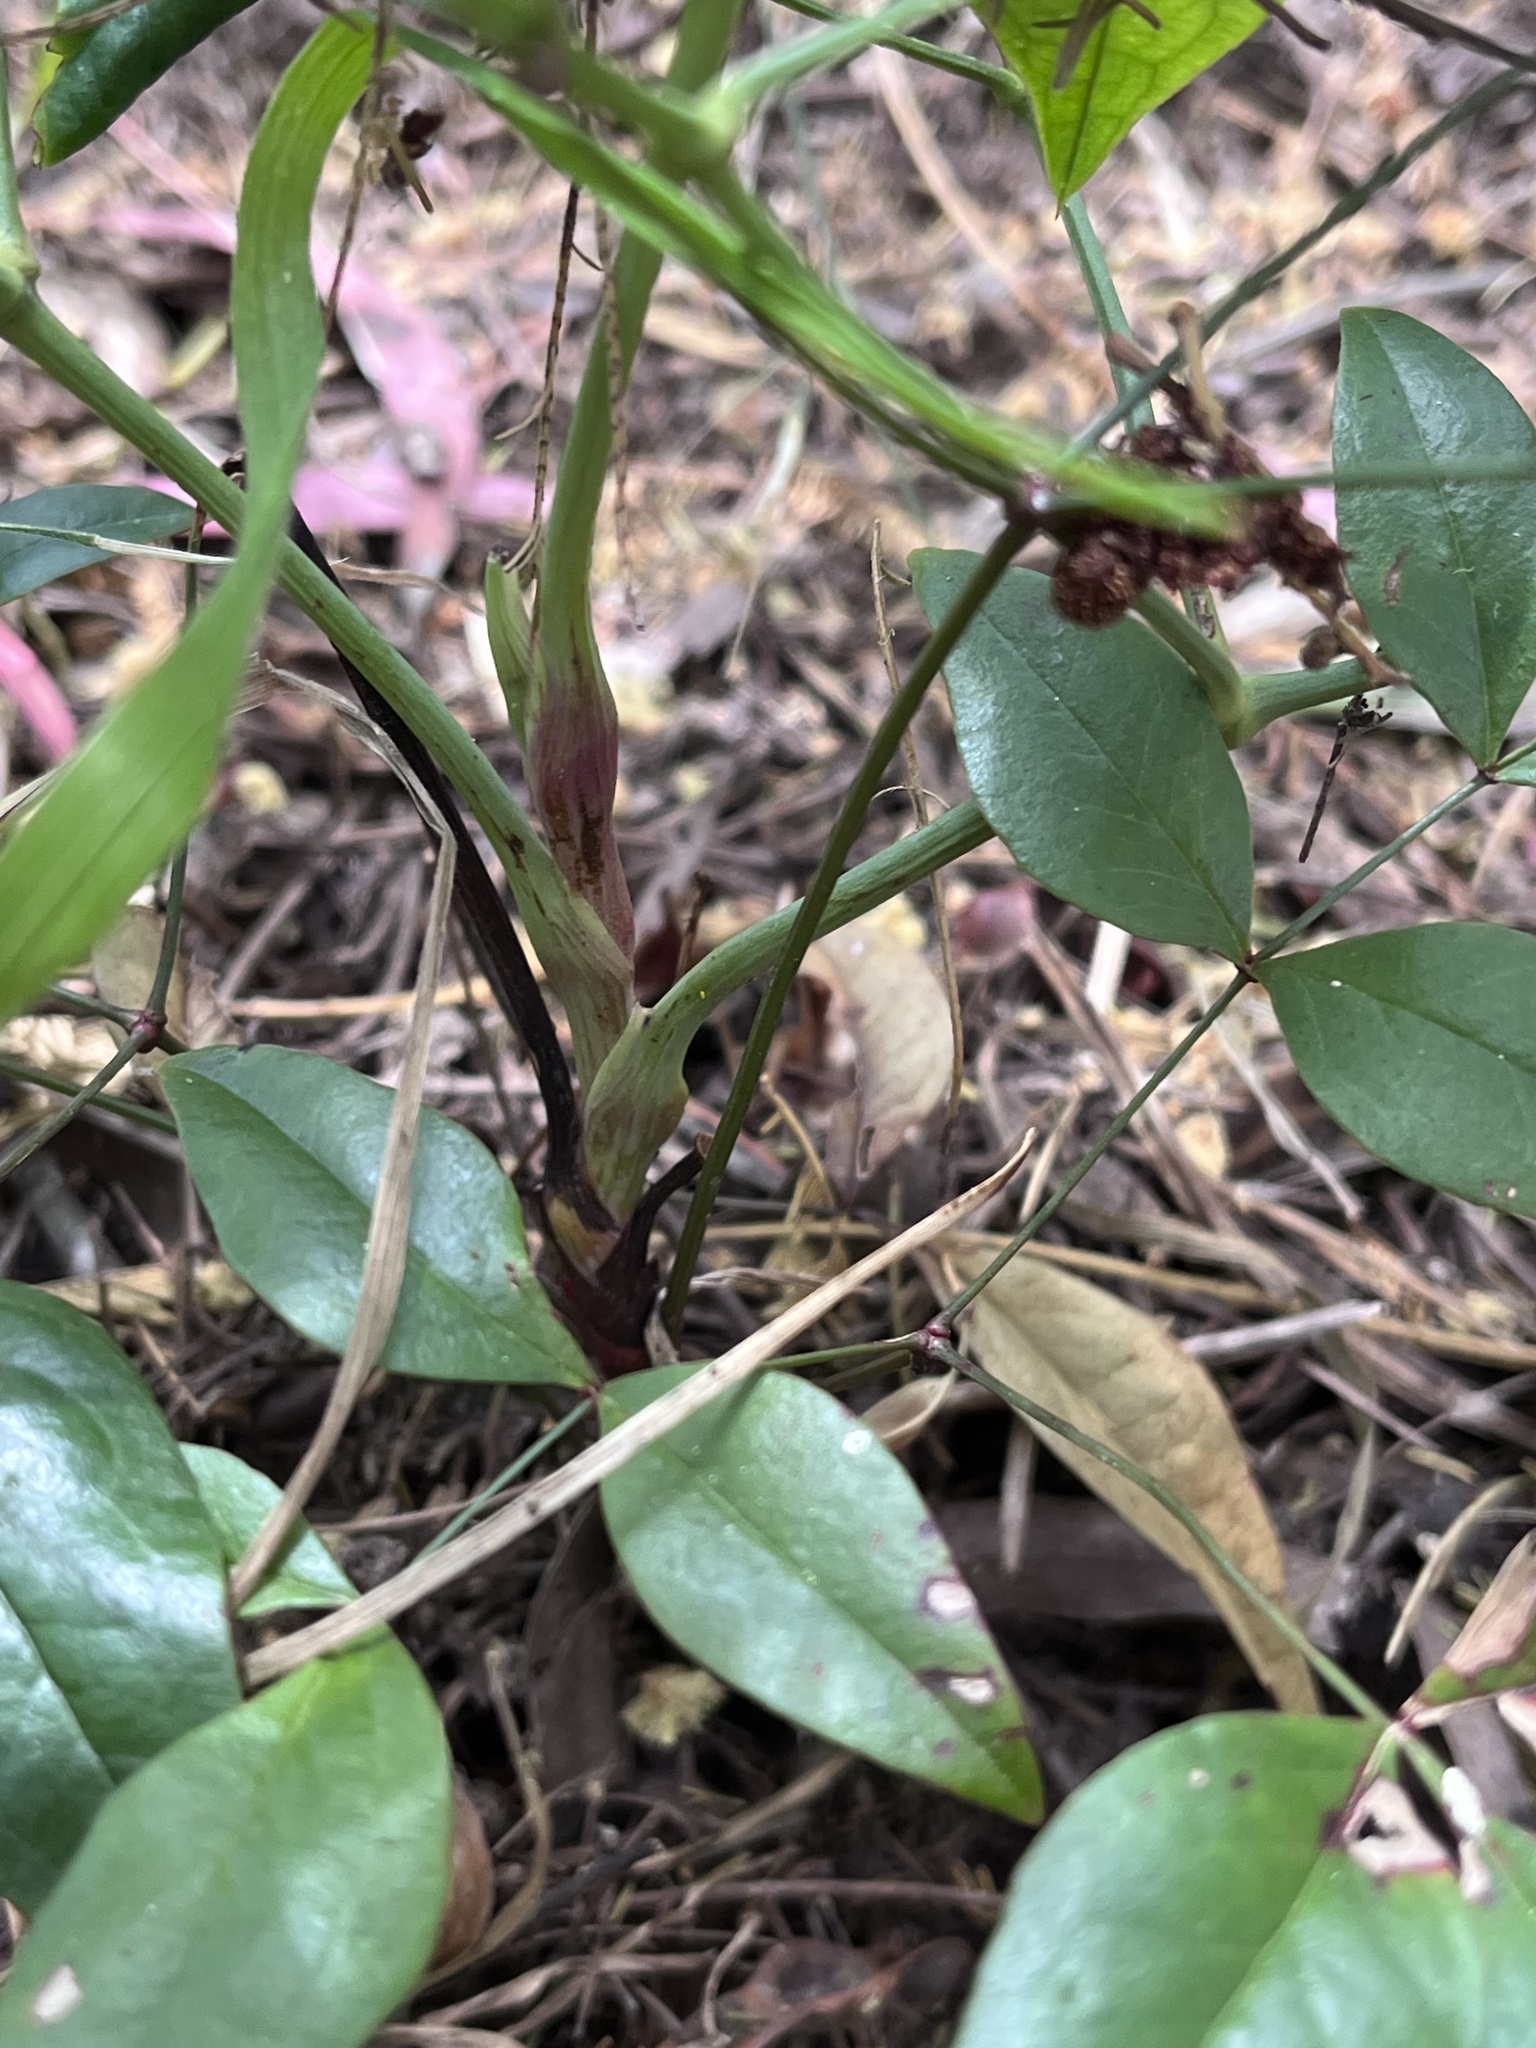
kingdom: Plantae
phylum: Tracheophyta
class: Magnoliopsida
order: Ranunculales
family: Berberidaceae
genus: Nandina
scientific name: Nandina domestica
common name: Sacred bamboo
